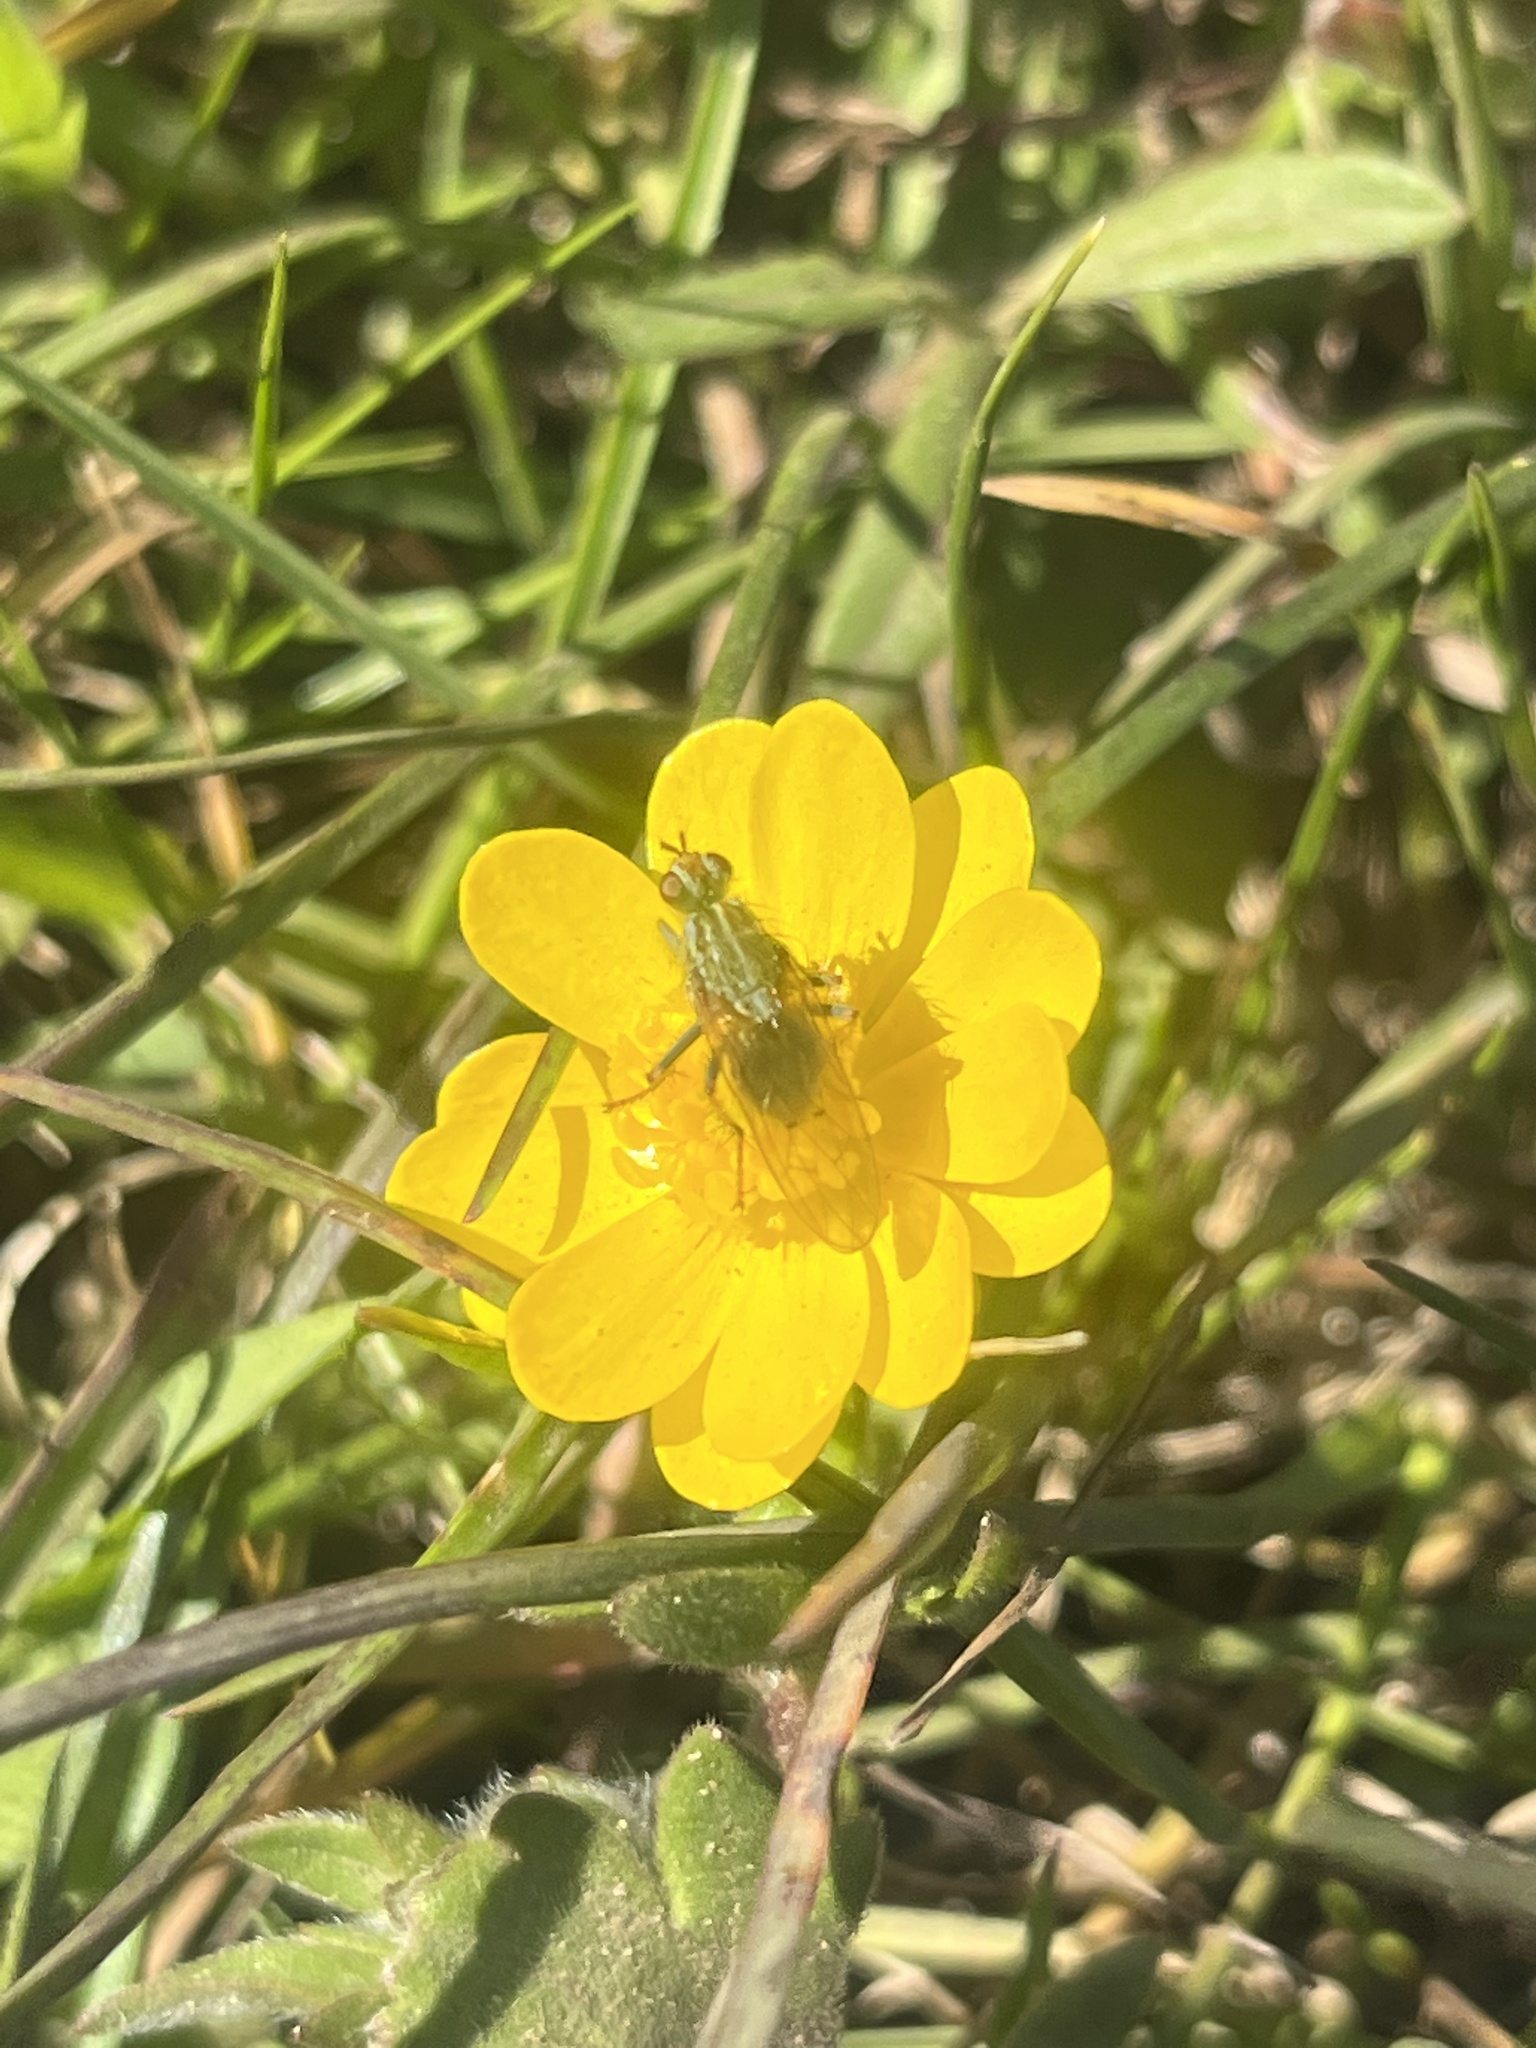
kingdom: Plantae
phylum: Tracheophyta
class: Magnoliopsida
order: Ranunculales
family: Ranunculaceae
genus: Ranunculus
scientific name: Ranunculus californicus
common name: California buttercup
